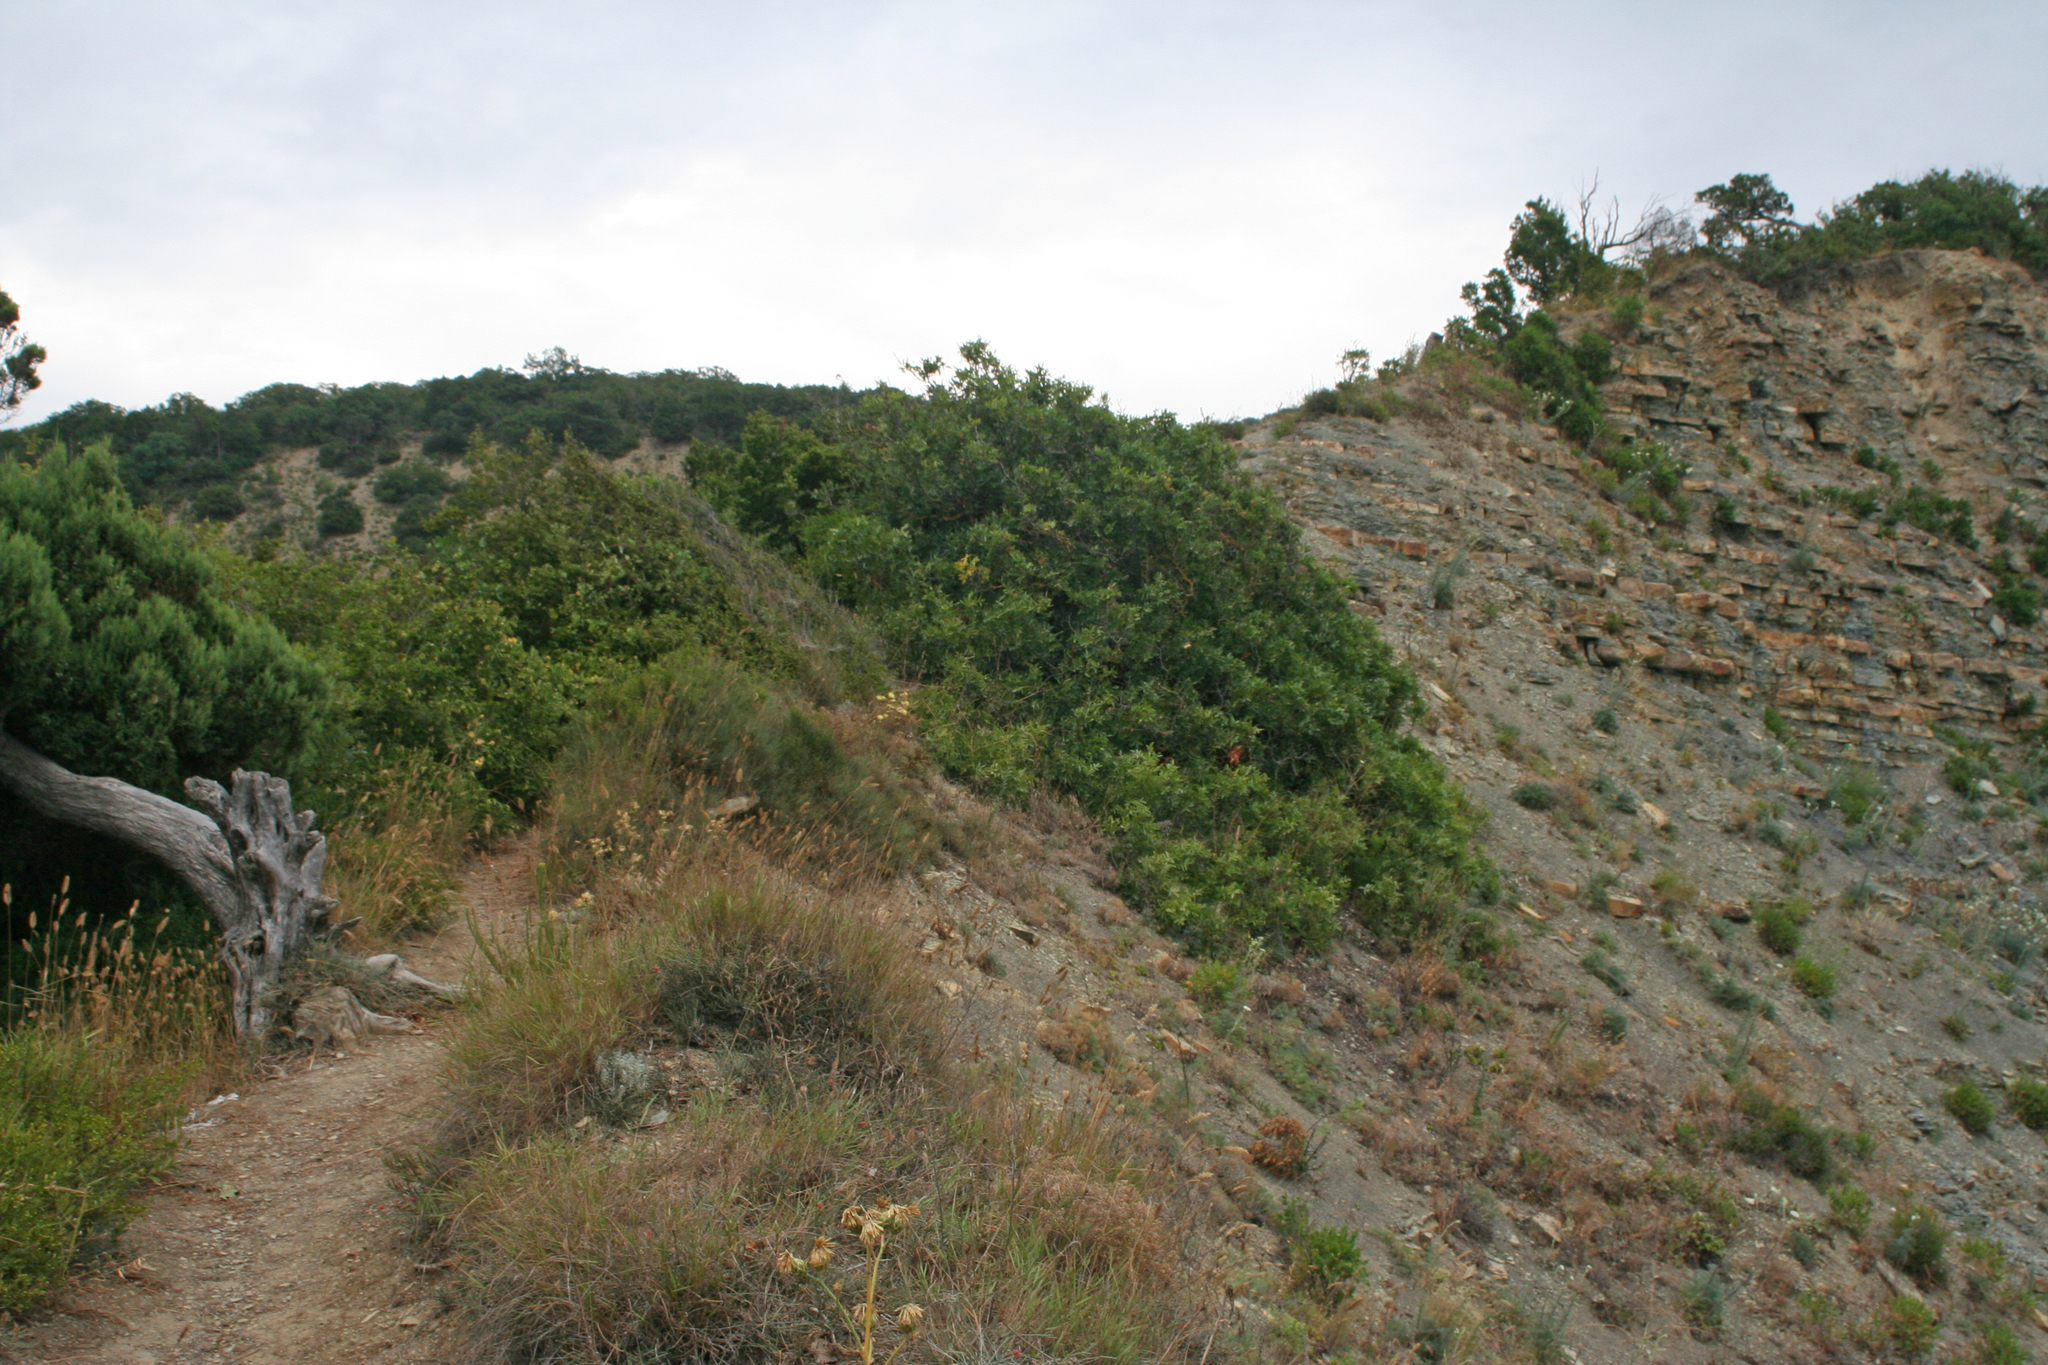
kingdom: Plantae
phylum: Tracheophyta
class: Pinopsida
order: Pinales
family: Cupressaceae
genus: Juniperus
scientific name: Juniperus excelsa
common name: Crimean juniper
